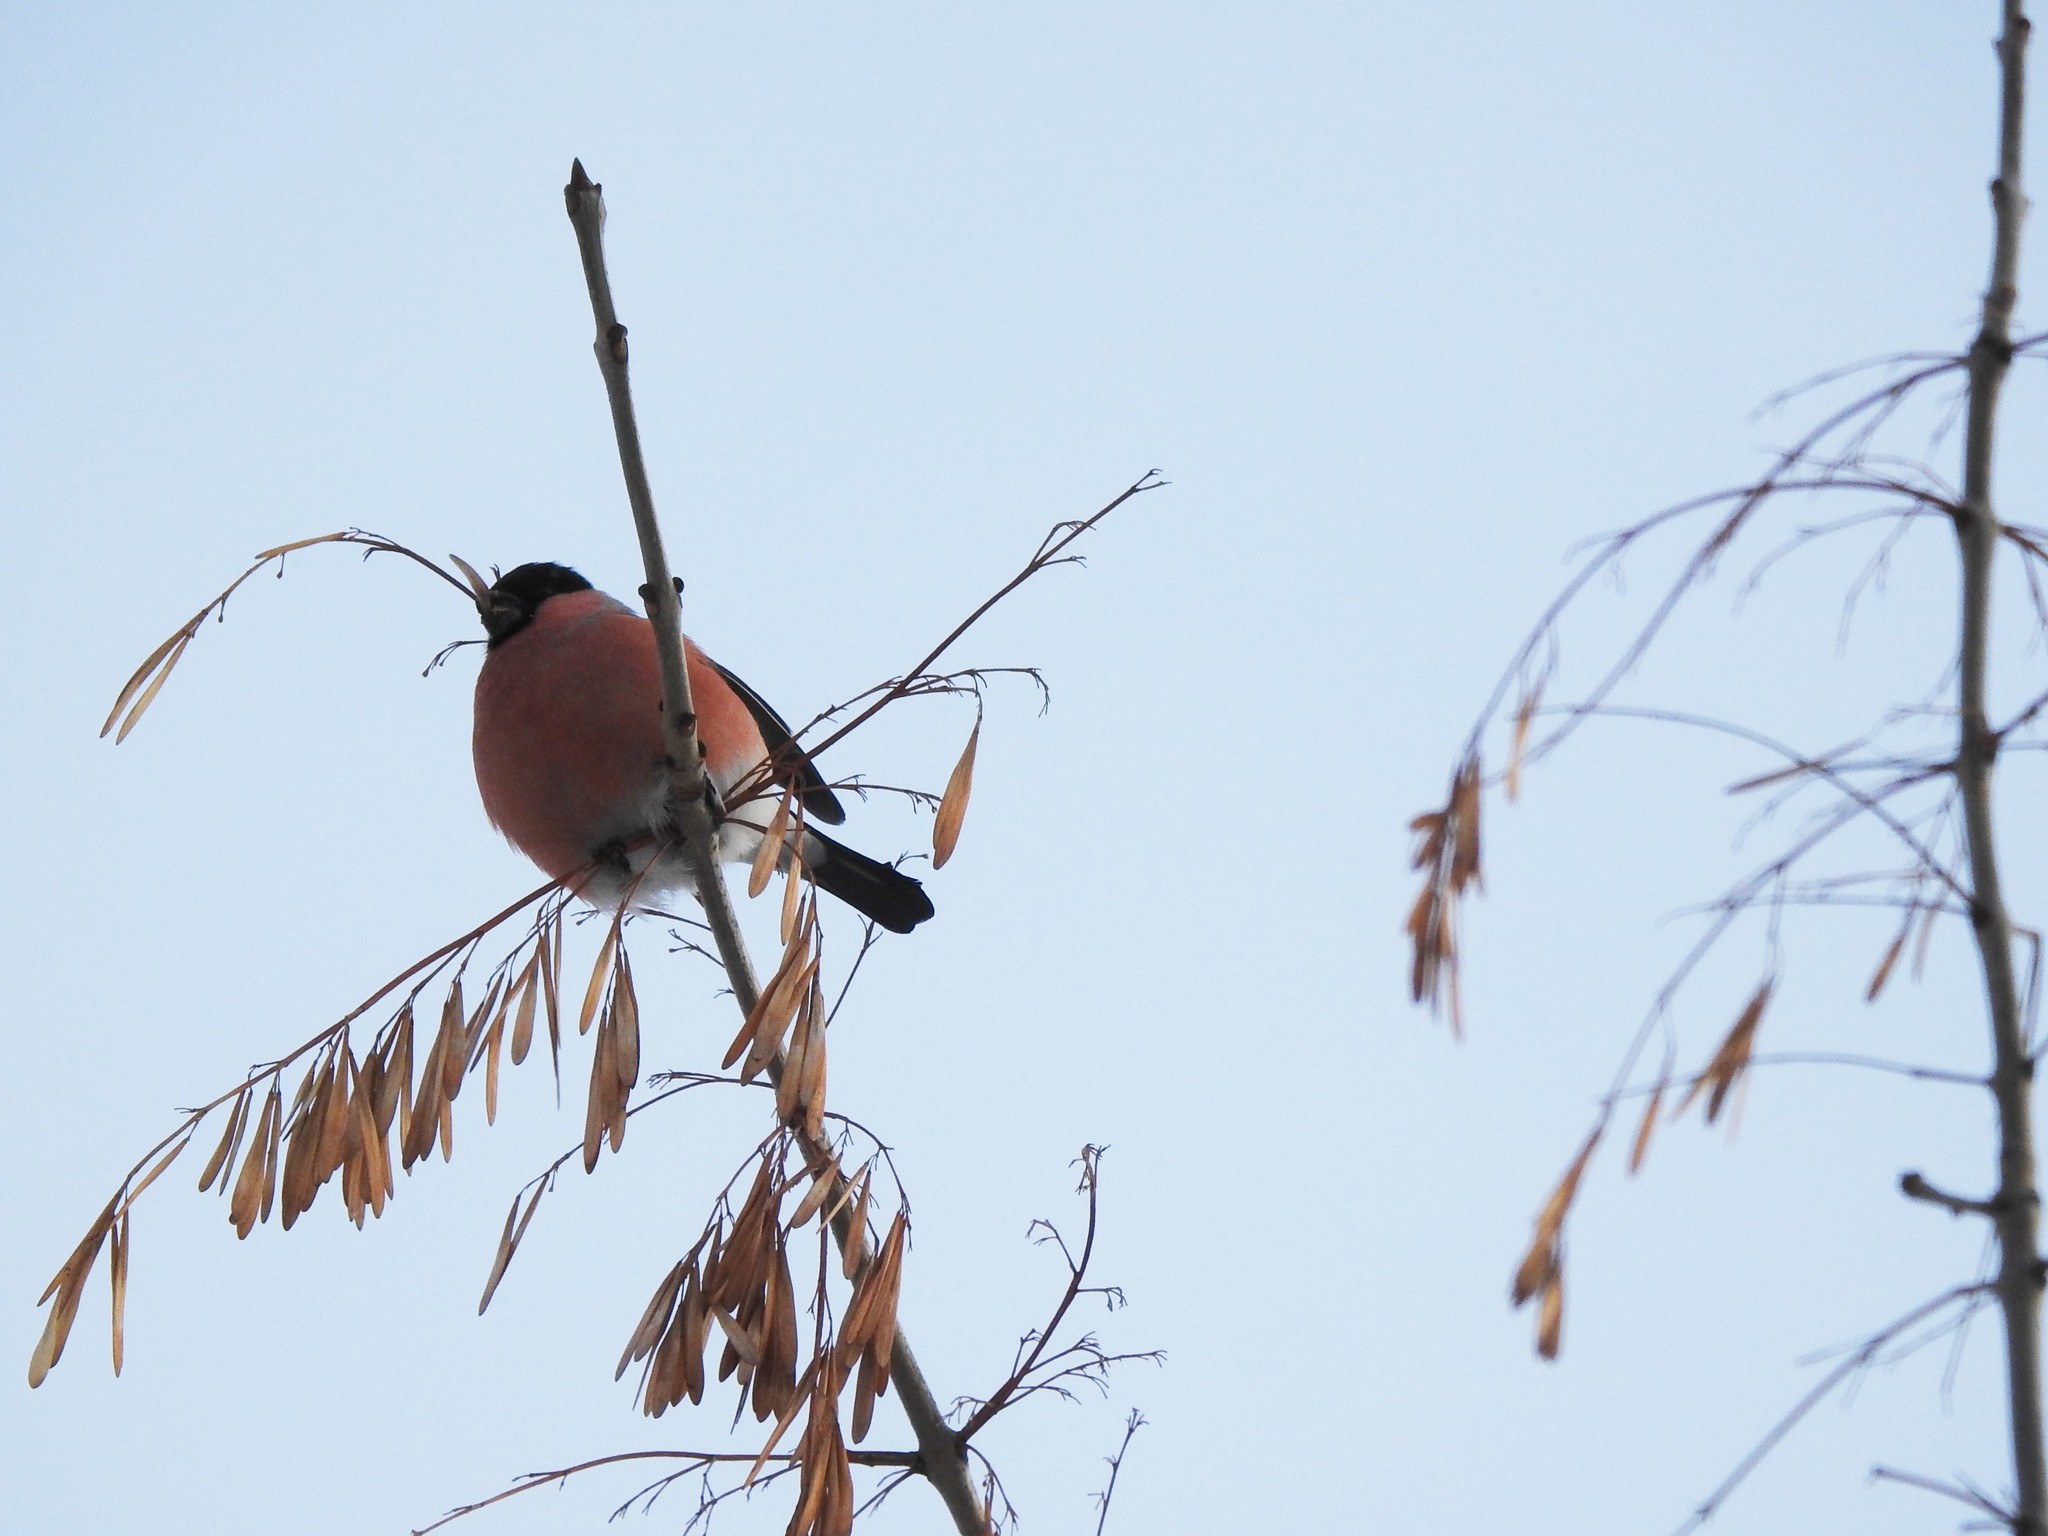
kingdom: Animalia
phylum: Chordata
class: Aves
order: Passeriformes
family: Fringillidae
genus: Pyrrhula
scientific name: Pyrrhula pyrrhula
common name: Eurasian bullfinch
